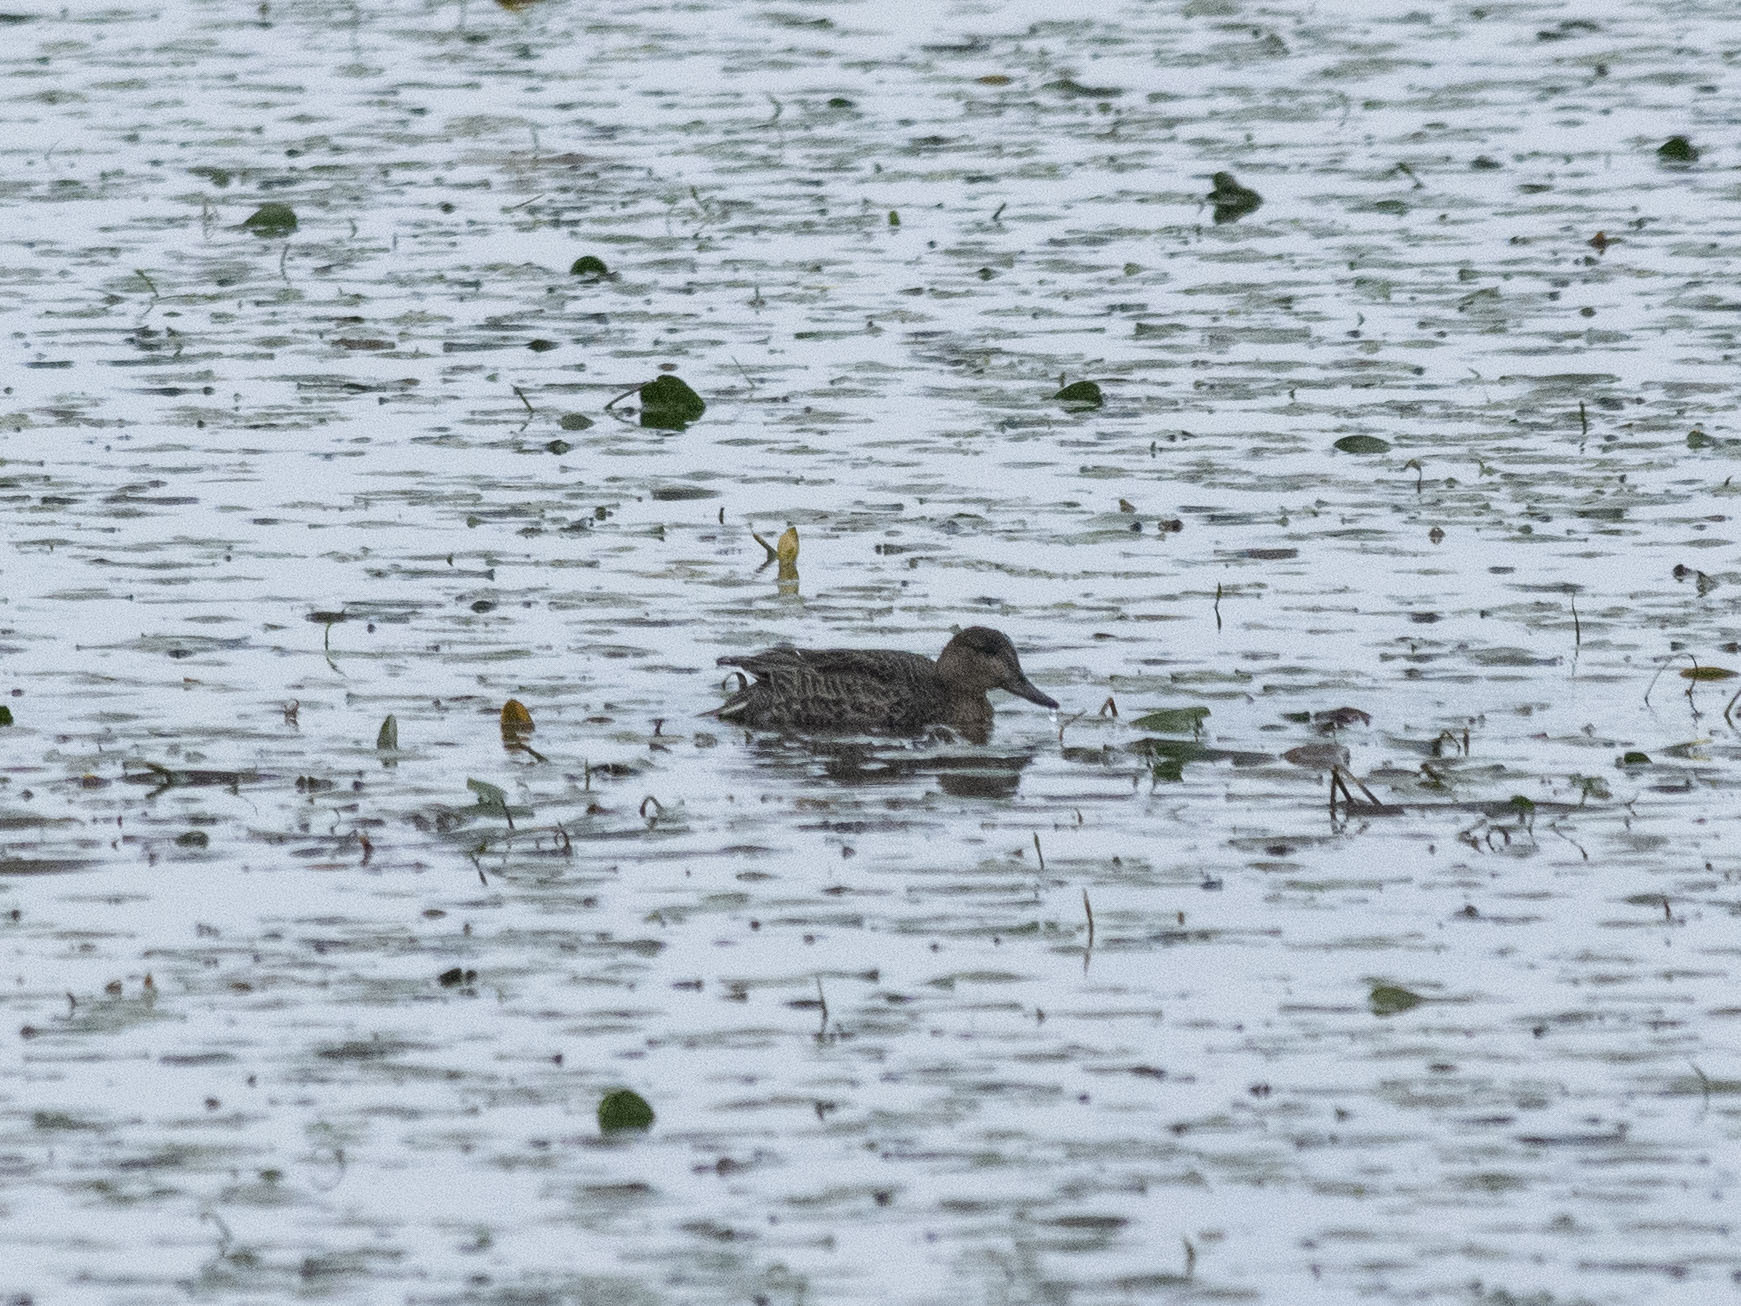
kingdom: Animalia
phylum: Chordata
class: Aves
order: Anseriformes
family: Anatidae
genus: Anas
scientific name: Anas crecca
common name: Eurasian teal
